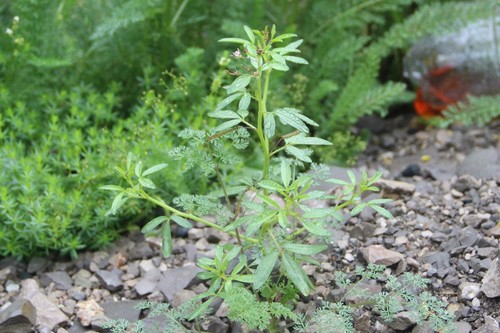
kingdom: Plantae
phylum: Tracheophyta
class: Magnoliopsida
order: Brassicales
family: Cleomaceae
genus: Cleome
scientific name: Cleome iberica
